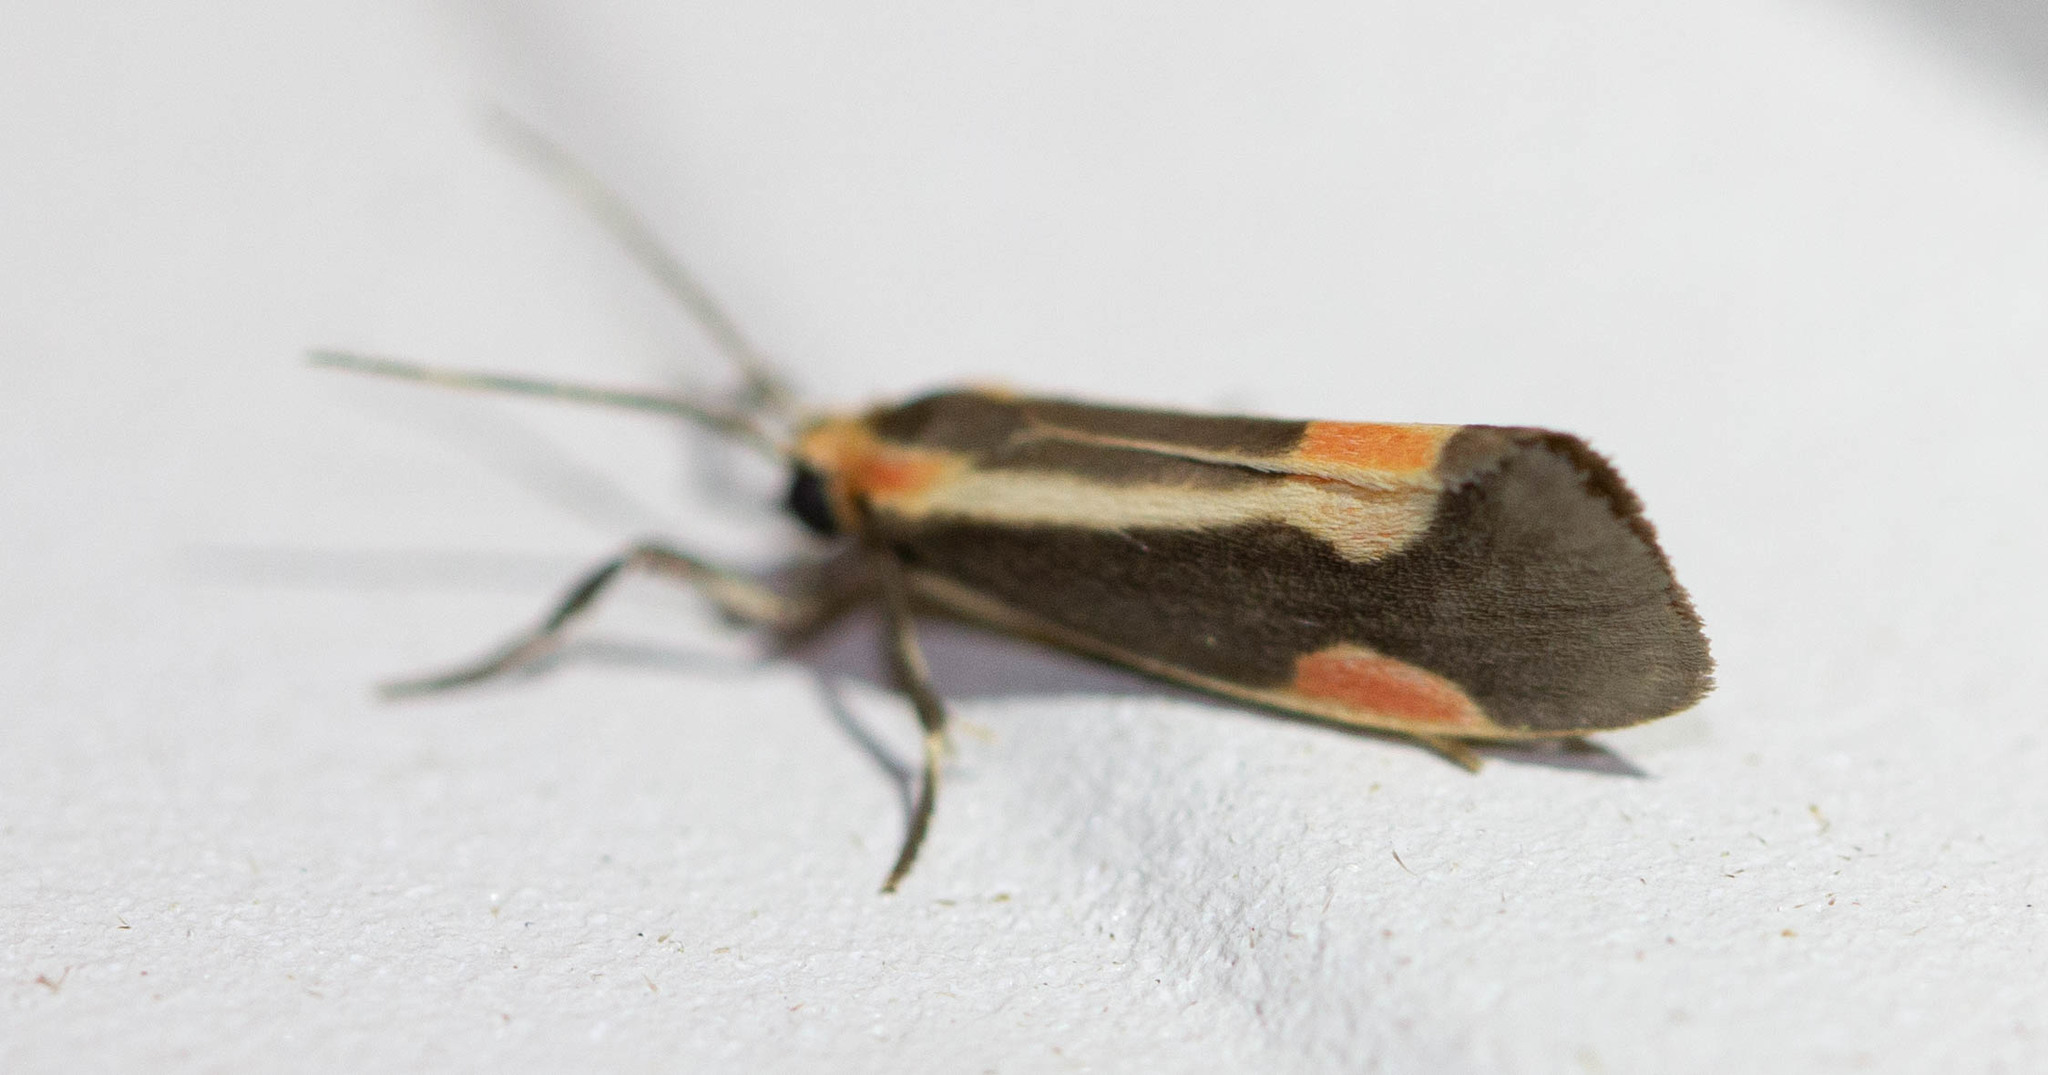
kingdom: Animalia
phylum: Arthropoda
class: Insecta
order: Lepidoptera
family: Erebidae
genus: Cisthene
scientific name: Cisthene packardii
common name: Packard's lichen moth
